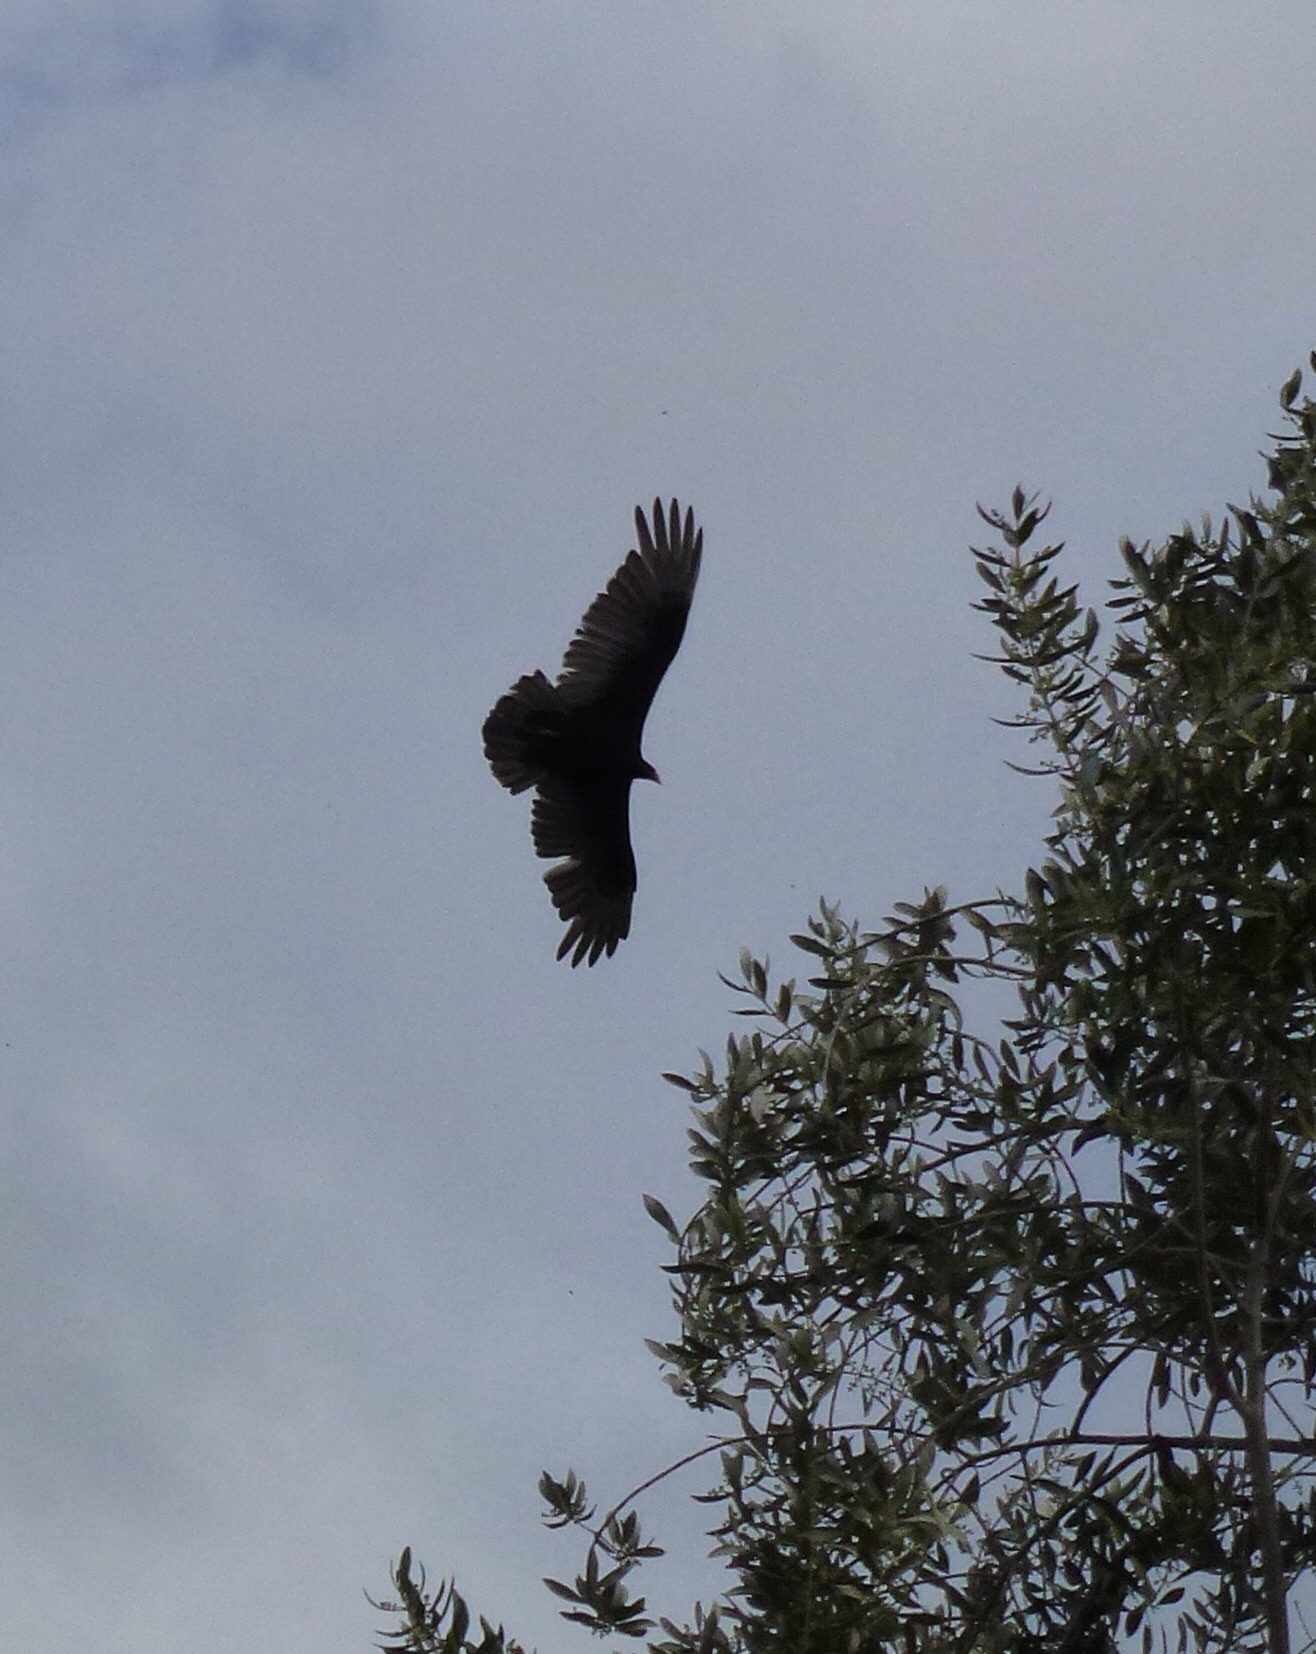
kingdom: Animalia
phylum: Chordata
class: Aves
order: Accipitriformes
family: Cathartidae
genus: Cathartes
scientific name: Cathartes aura
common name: Turkey vulture
